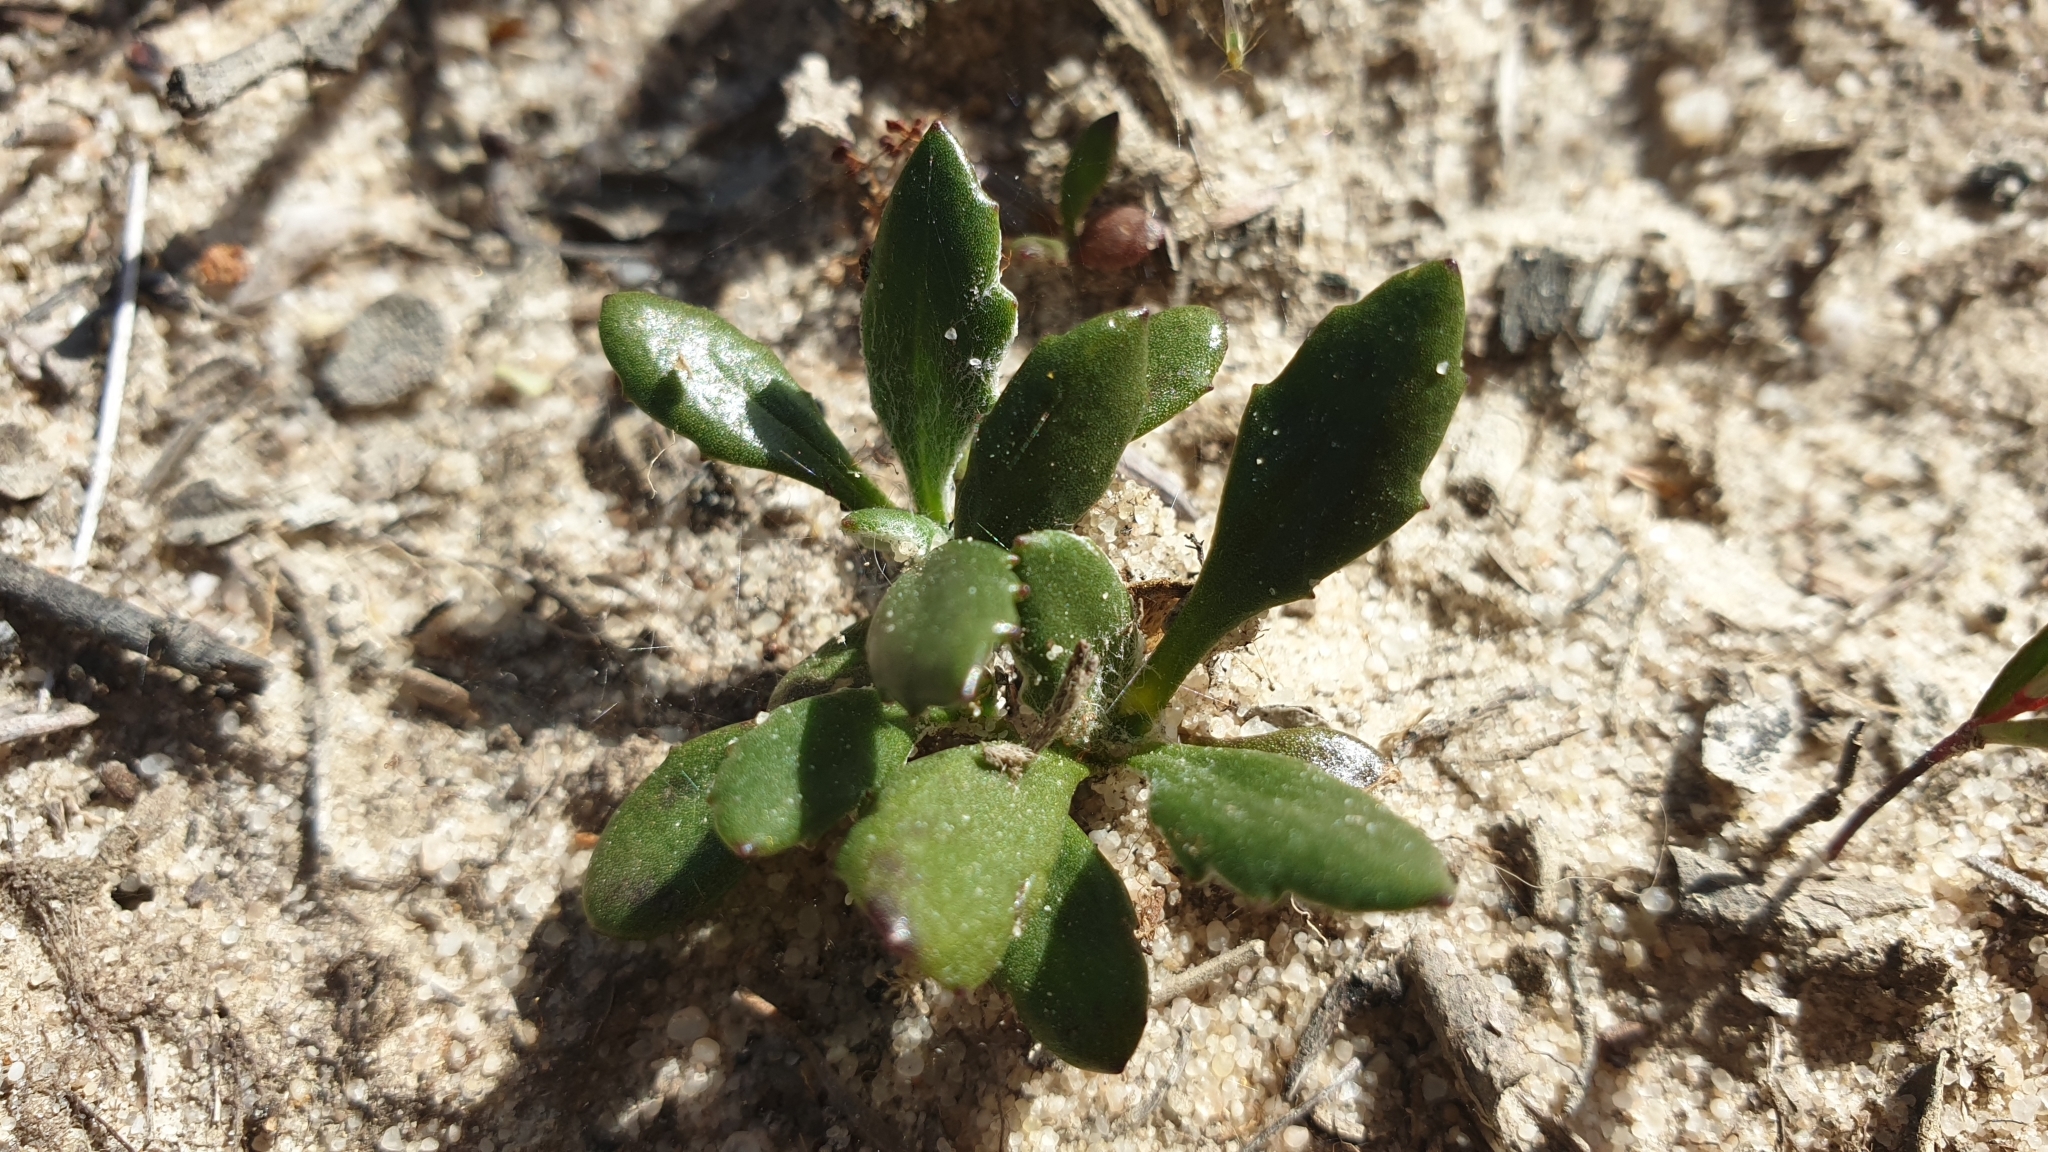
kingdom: Plantae
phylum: Tracheophyta
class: Magnoliopsida
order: Asterales
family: Goodeniaceae
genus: Goodenia
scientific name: Goodenia blackiana
